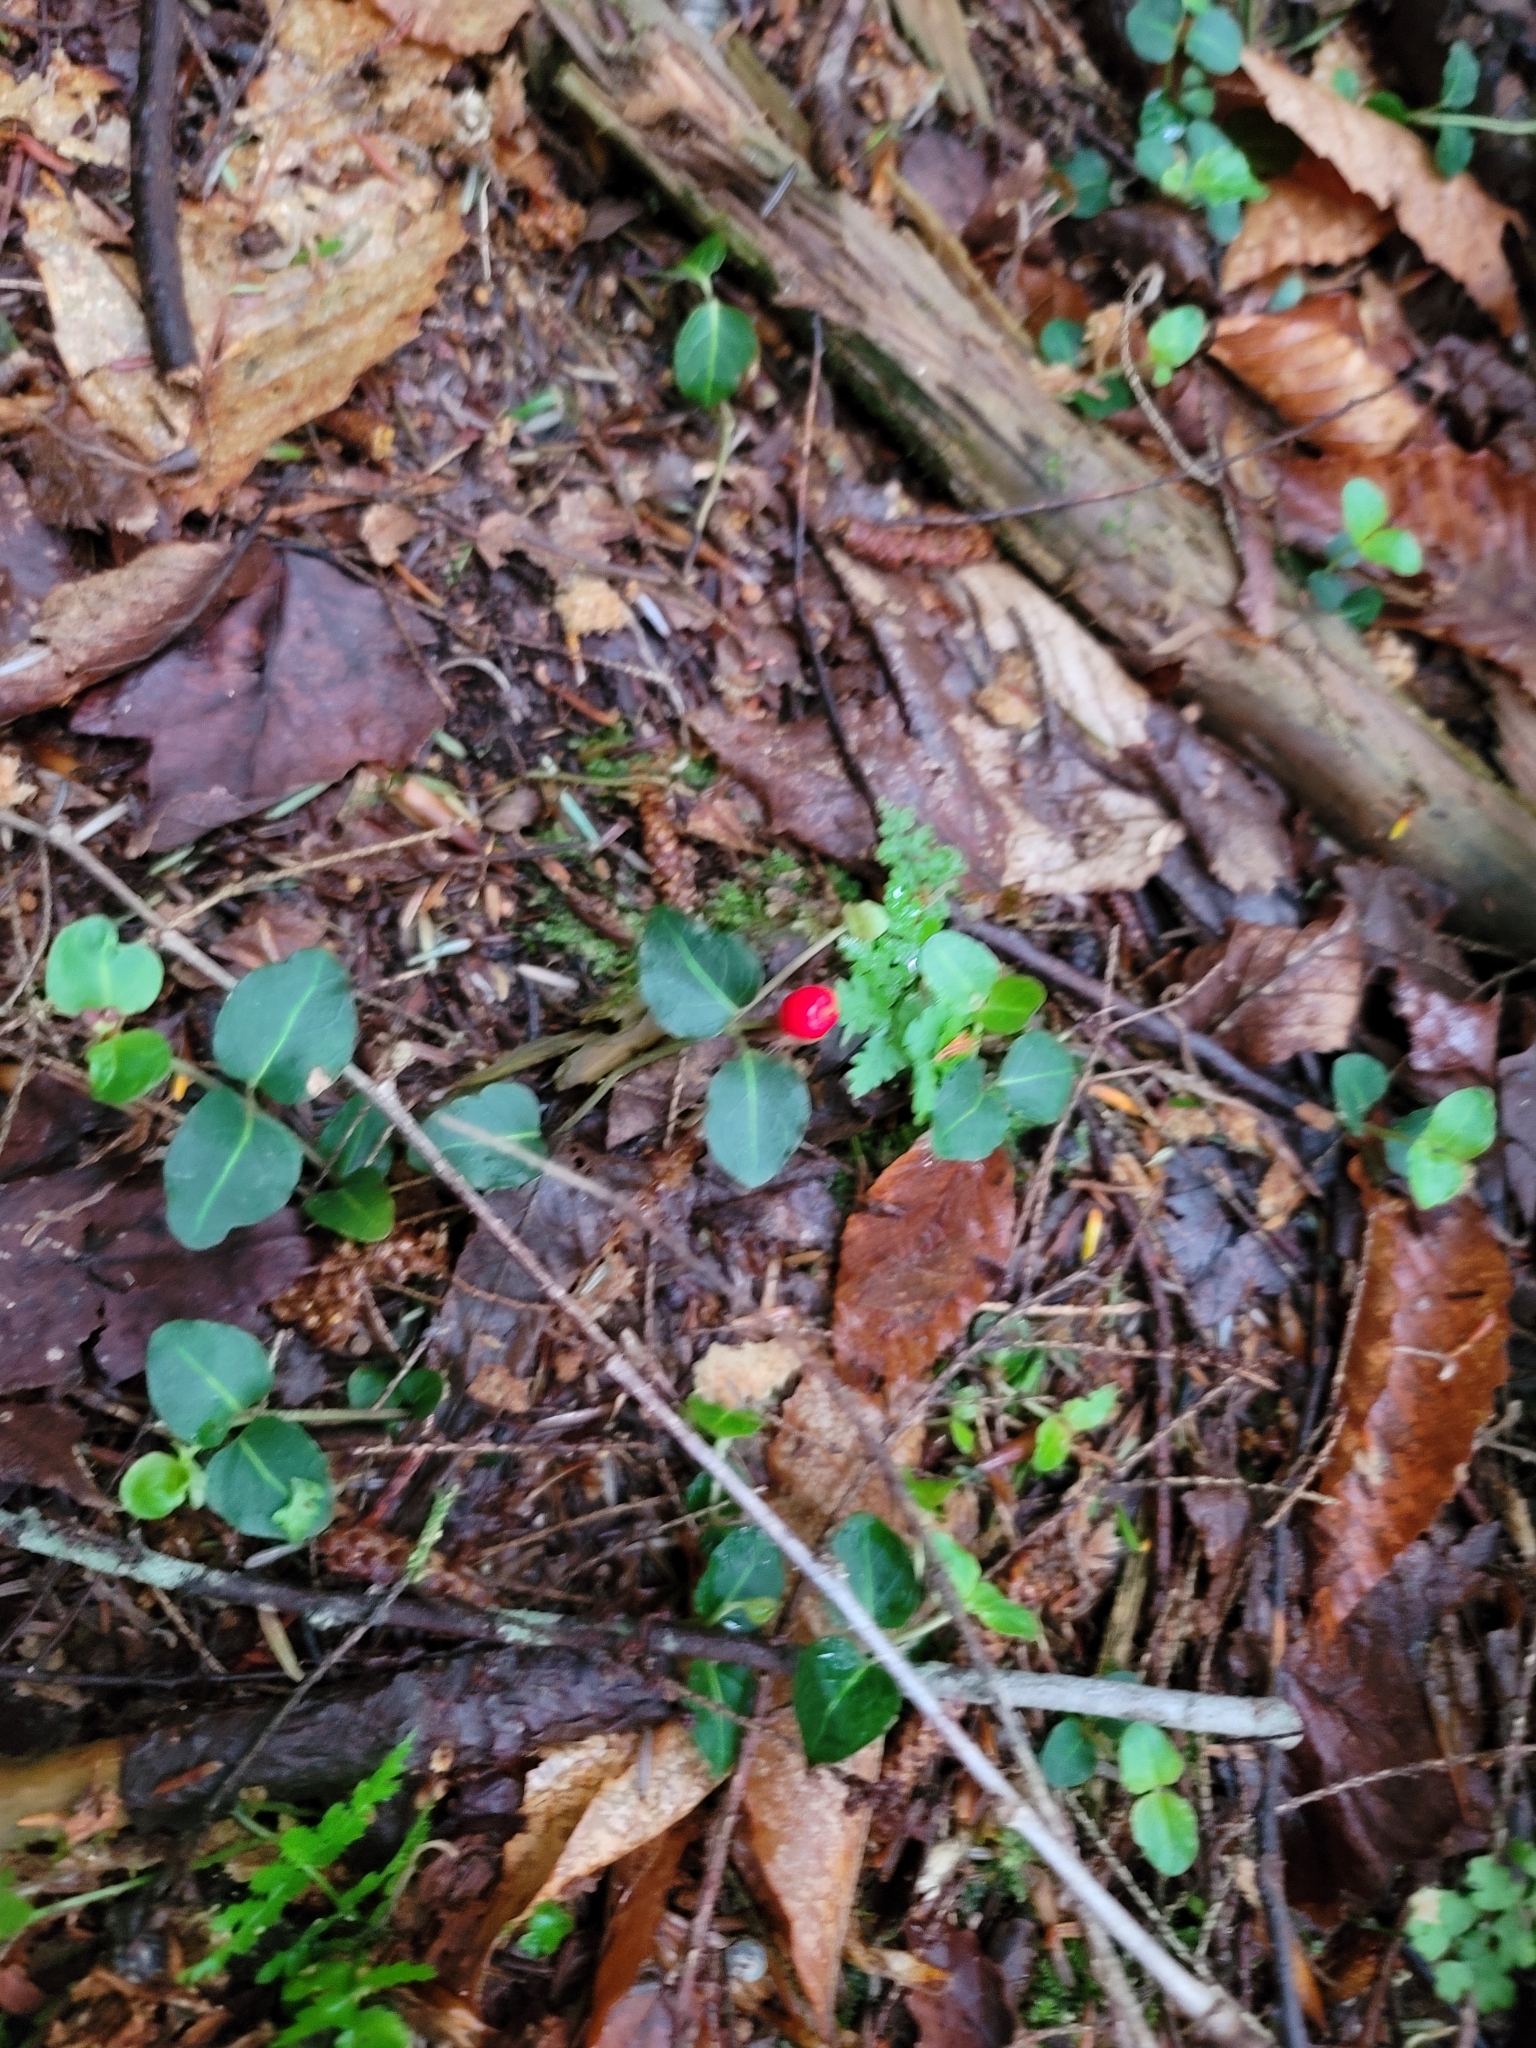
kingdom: Plantae
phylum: Tracheophyta
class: Magnoliopsida
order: Gentianales
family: Rubiaceae
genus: Mitchella
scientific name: Mitchella repens
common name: Partridge-berry
